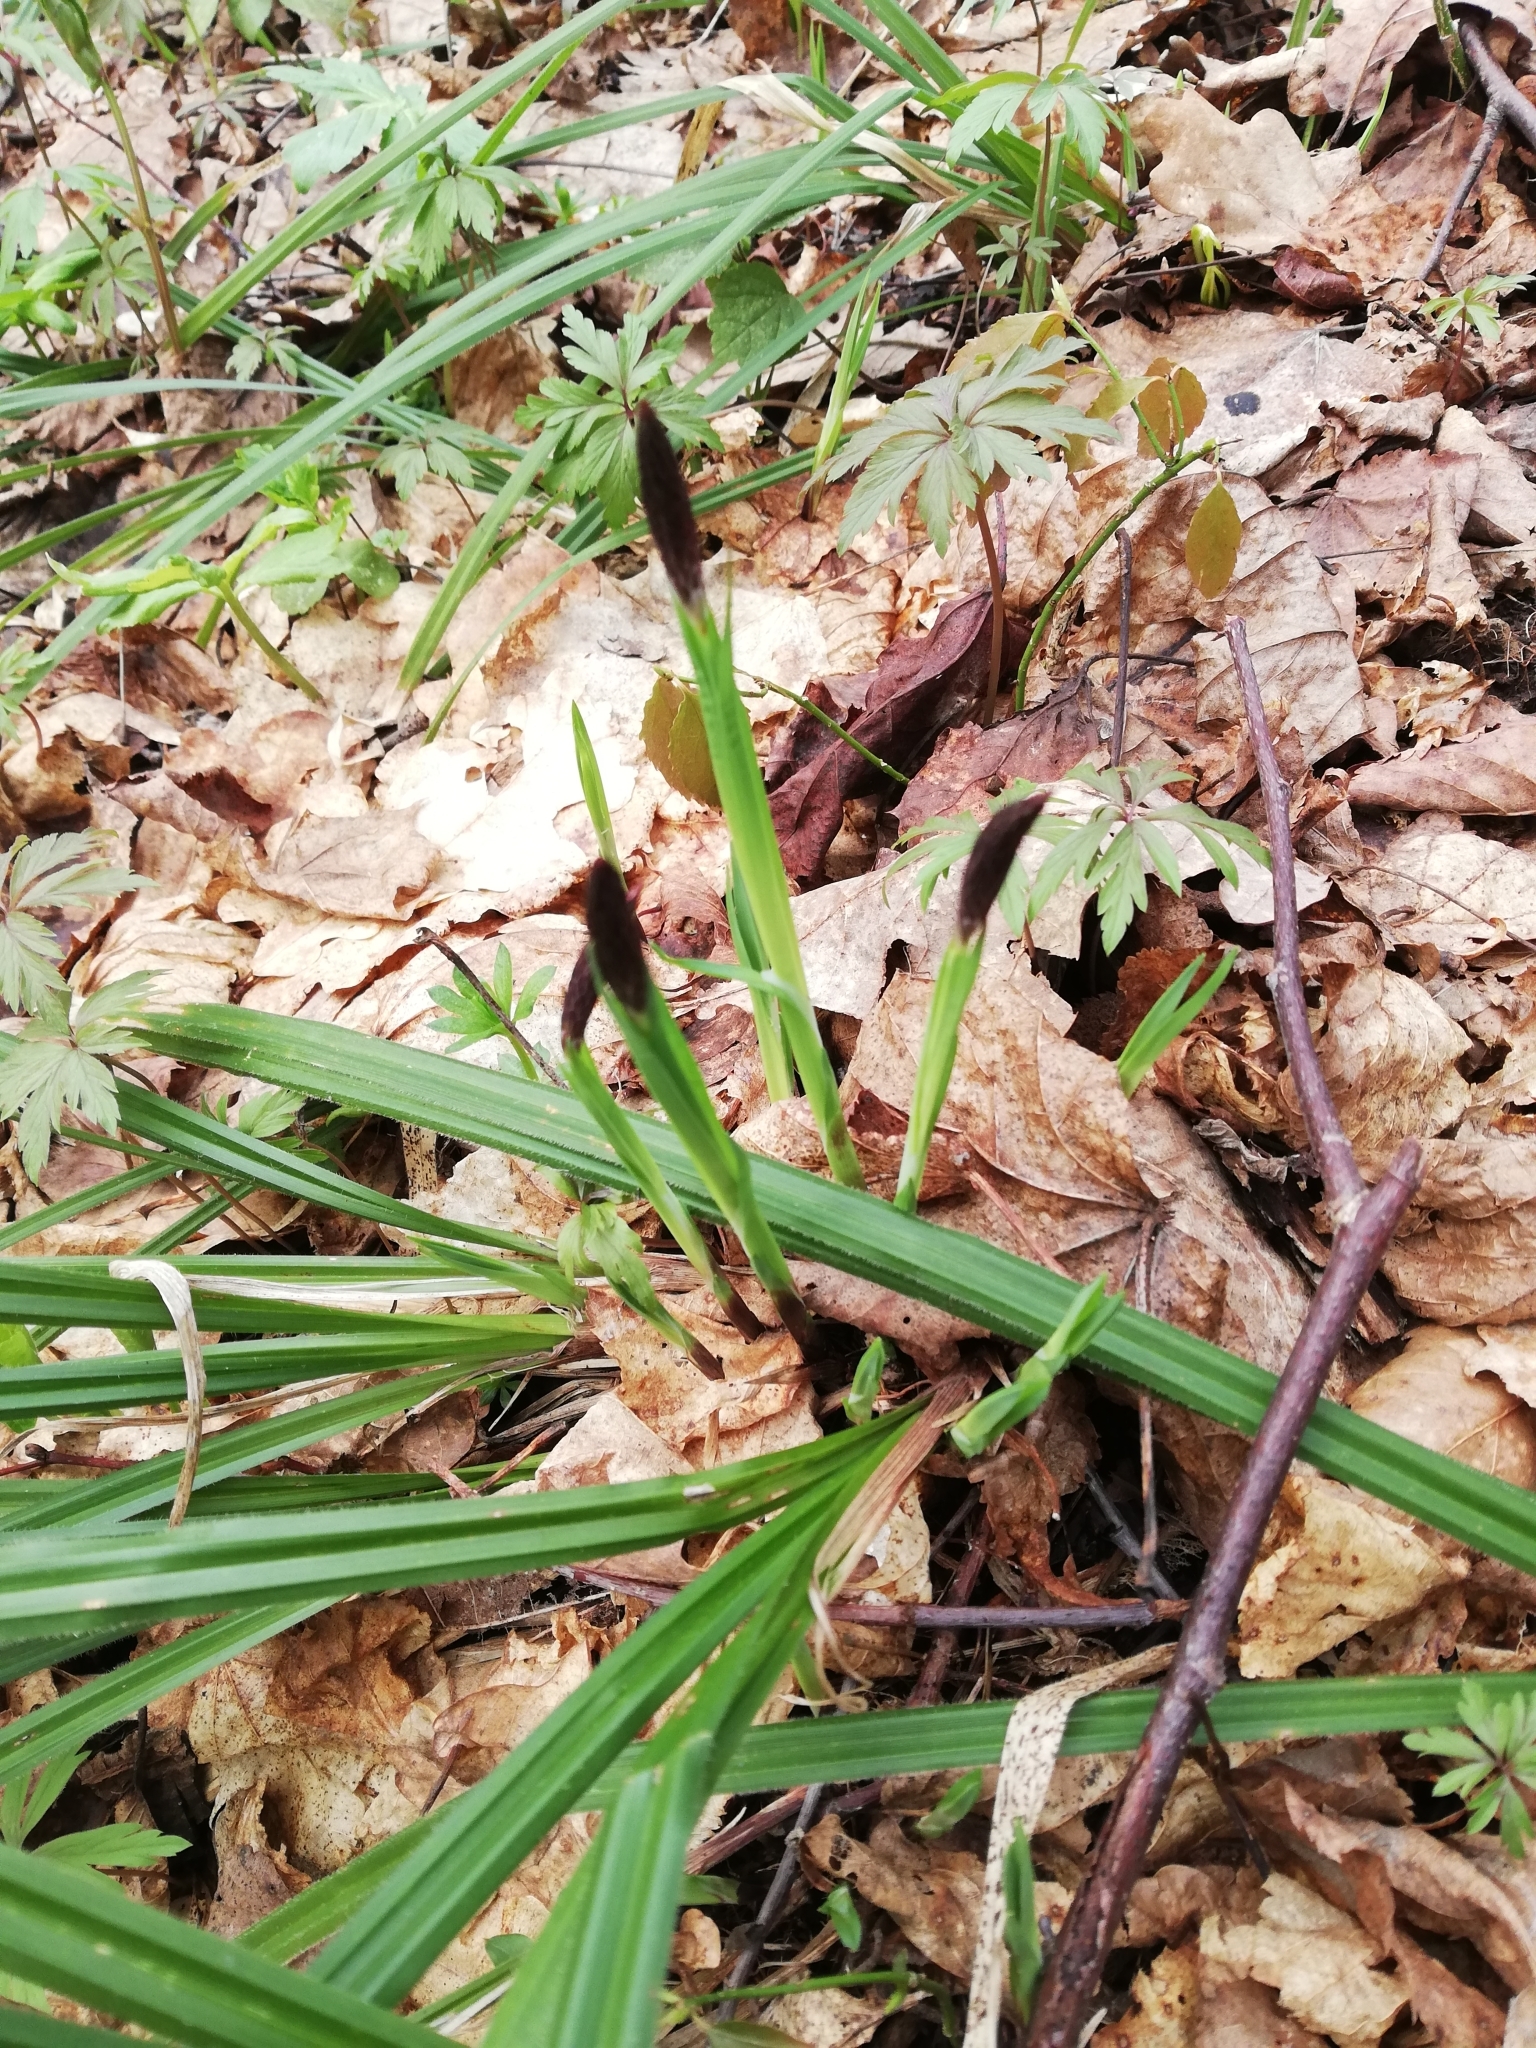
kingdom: Plantae
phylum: Tracheophyta
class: Liliopsida
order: Poales
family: Cyperaceae
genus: Carex
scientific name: Carex pilosa
